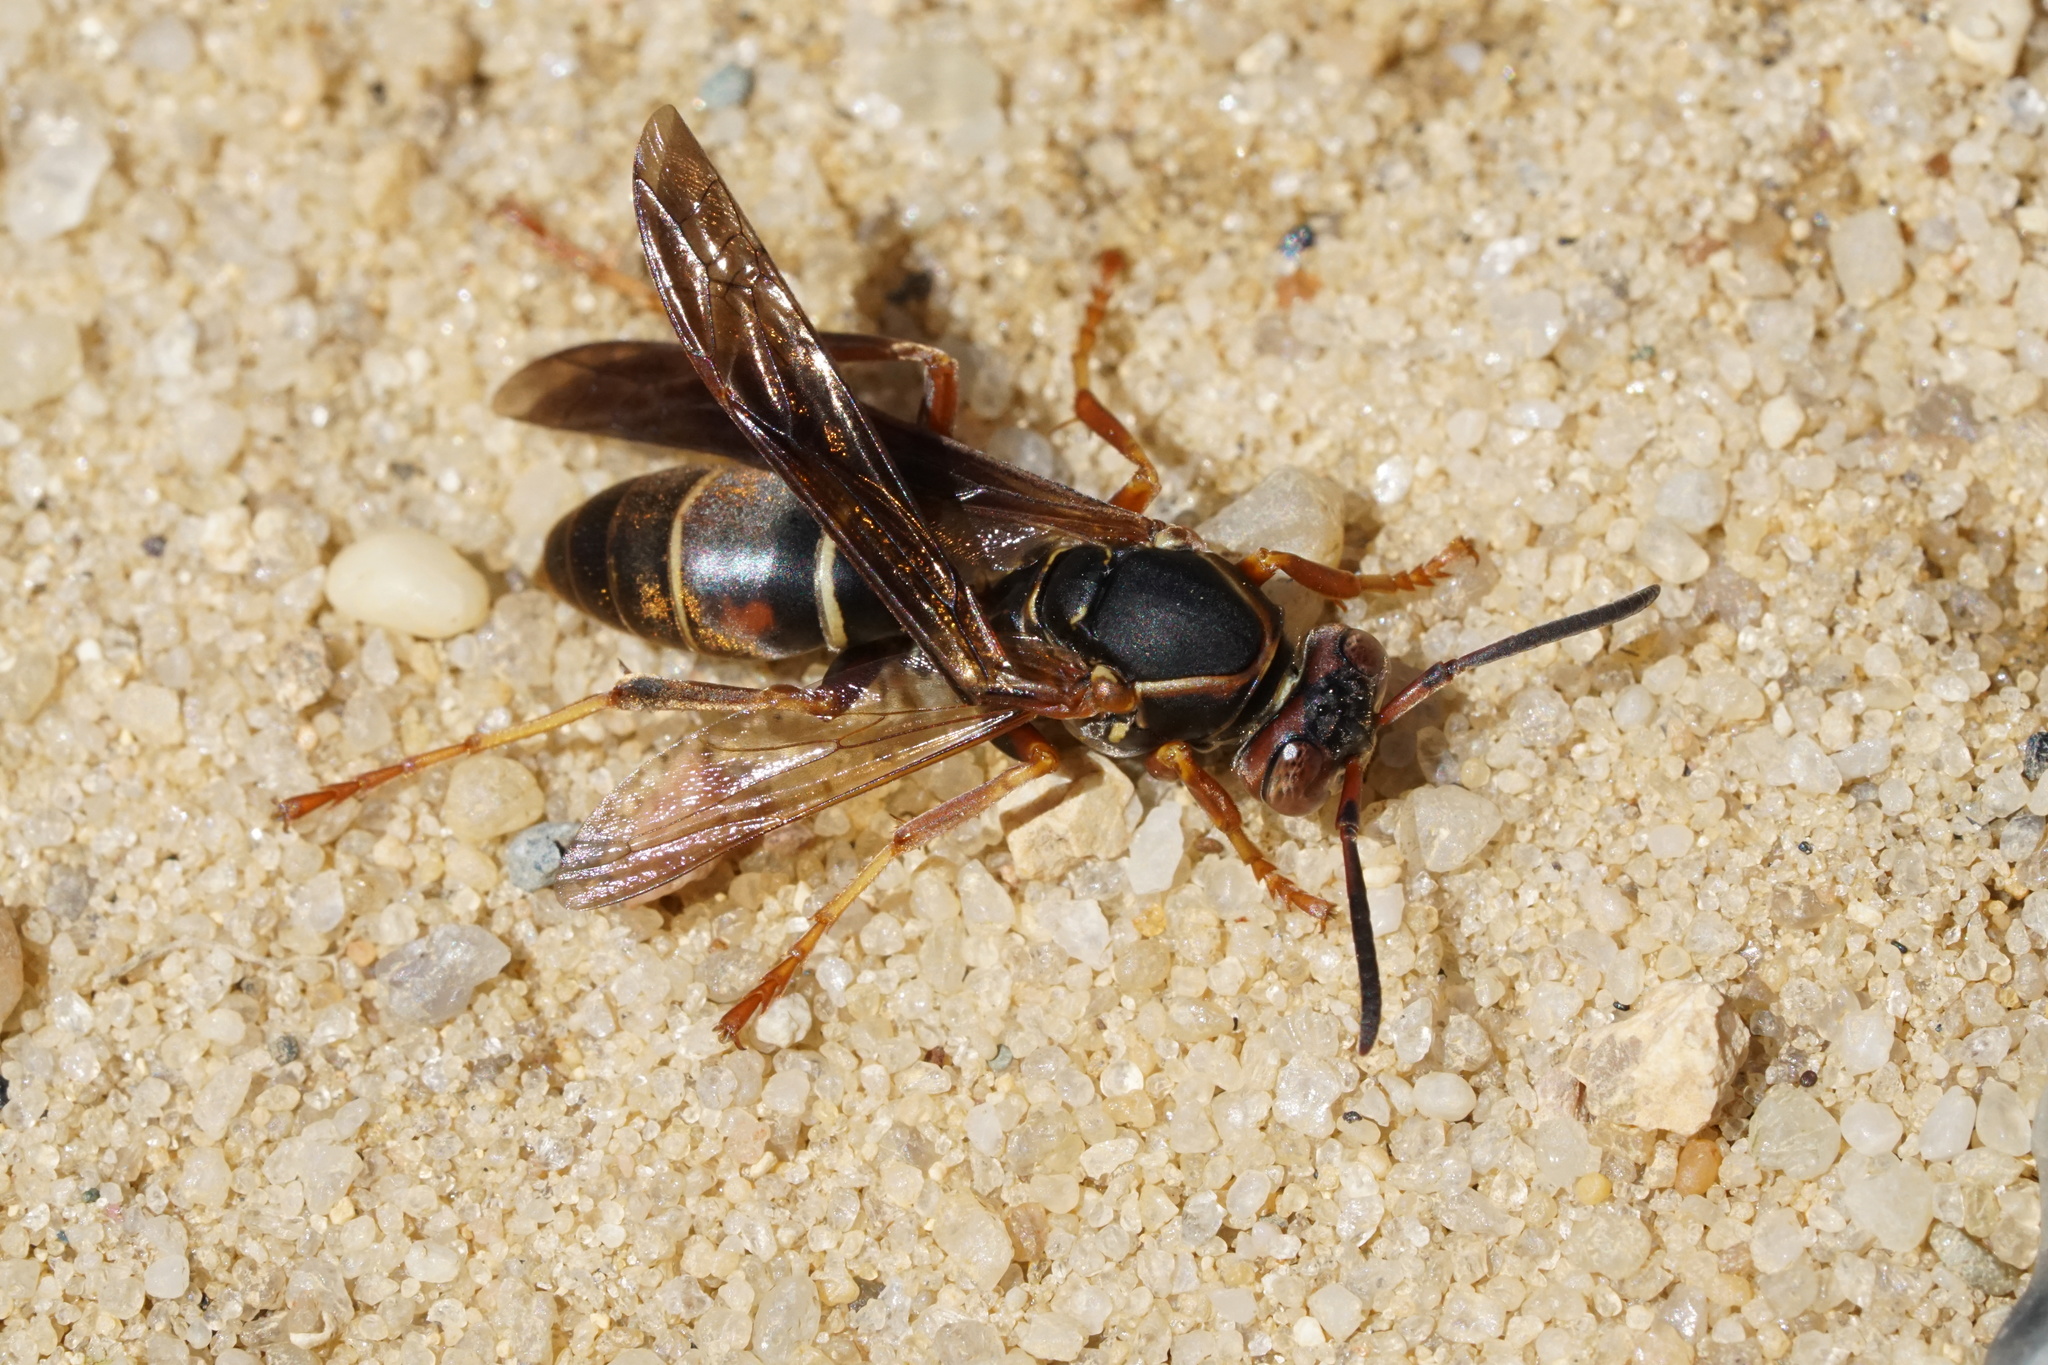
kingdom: Animalia
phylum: Arthropoda
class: Insecta
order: Hymenoptera
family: Eumenidae
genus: Polistes
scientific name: Polistes fuscatus
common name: Dark paper wasp
